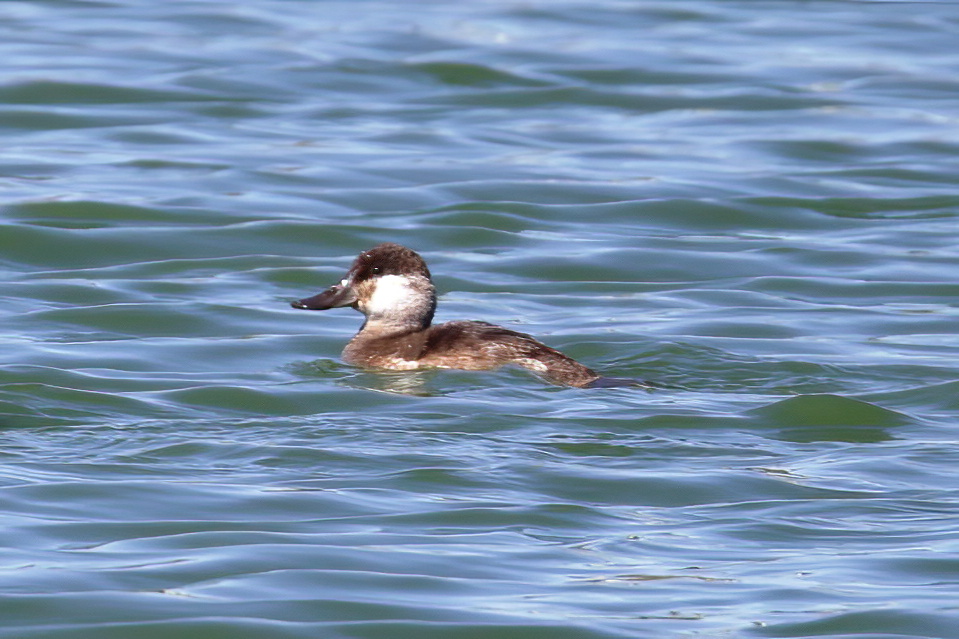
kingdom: Animalia
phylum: Chordata
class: Aves
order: Anseriformes
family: Anatidae
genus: Oxyura
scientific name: Oxyura jamaicensis
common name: Ruddy duck
